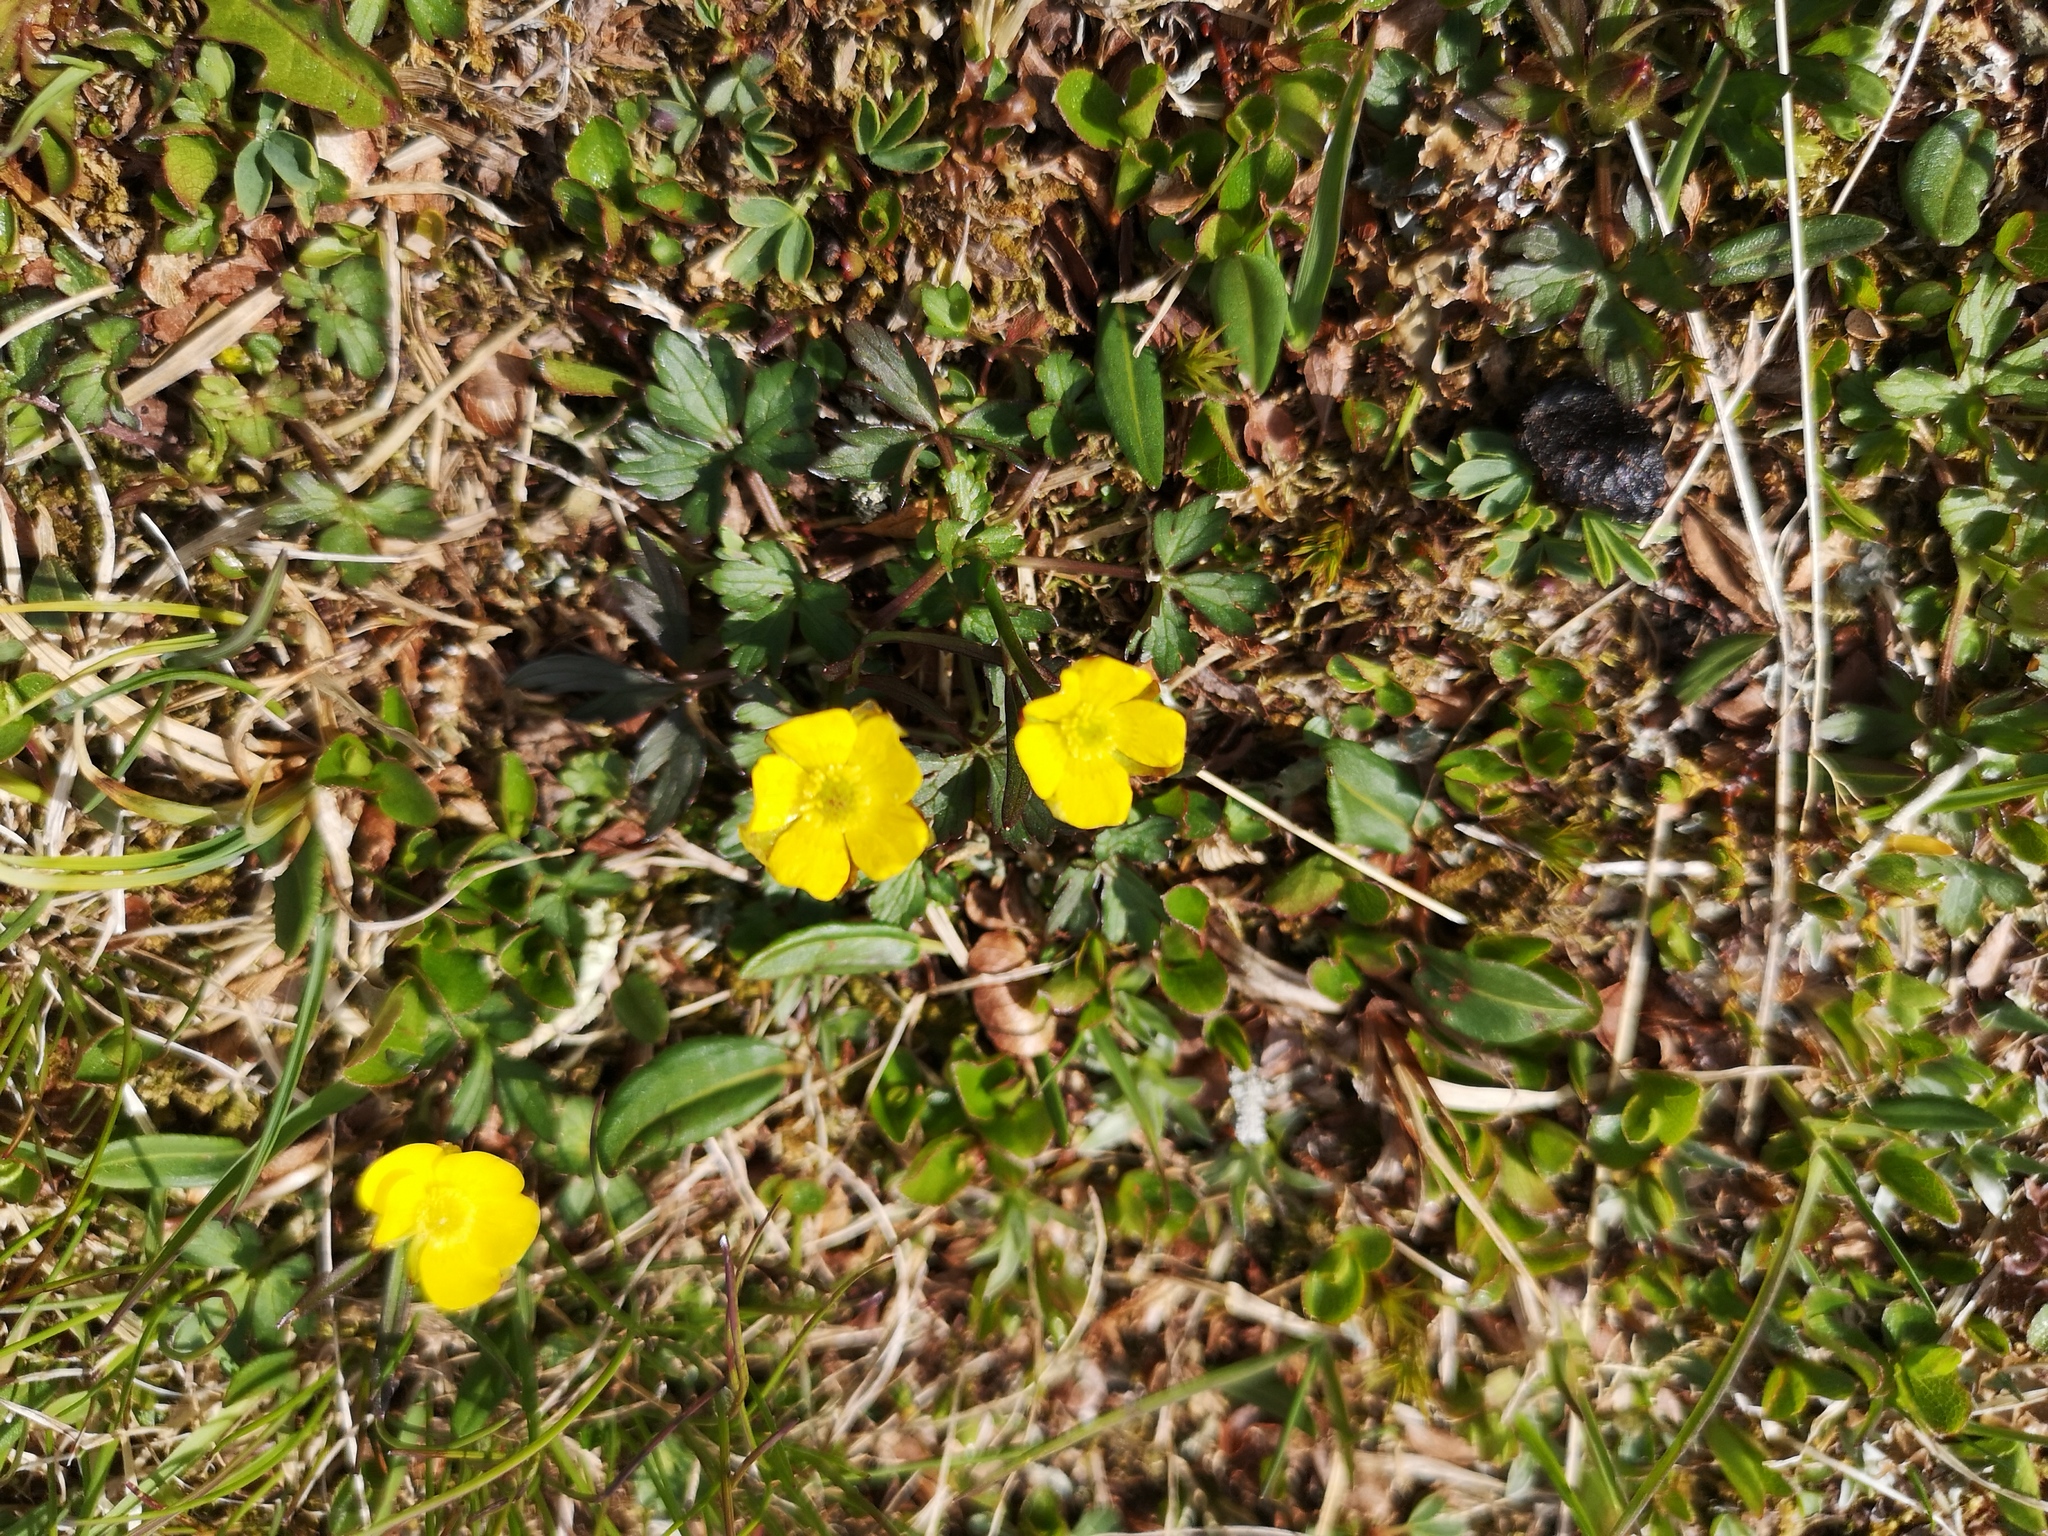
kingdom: Plantae
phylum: Tracheophyta
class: Magnoliopsida
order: Ranunculales
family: Ranunculaceae
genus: Ranunculus
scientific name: Ranunculus nivalis
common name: Snow buttercup
